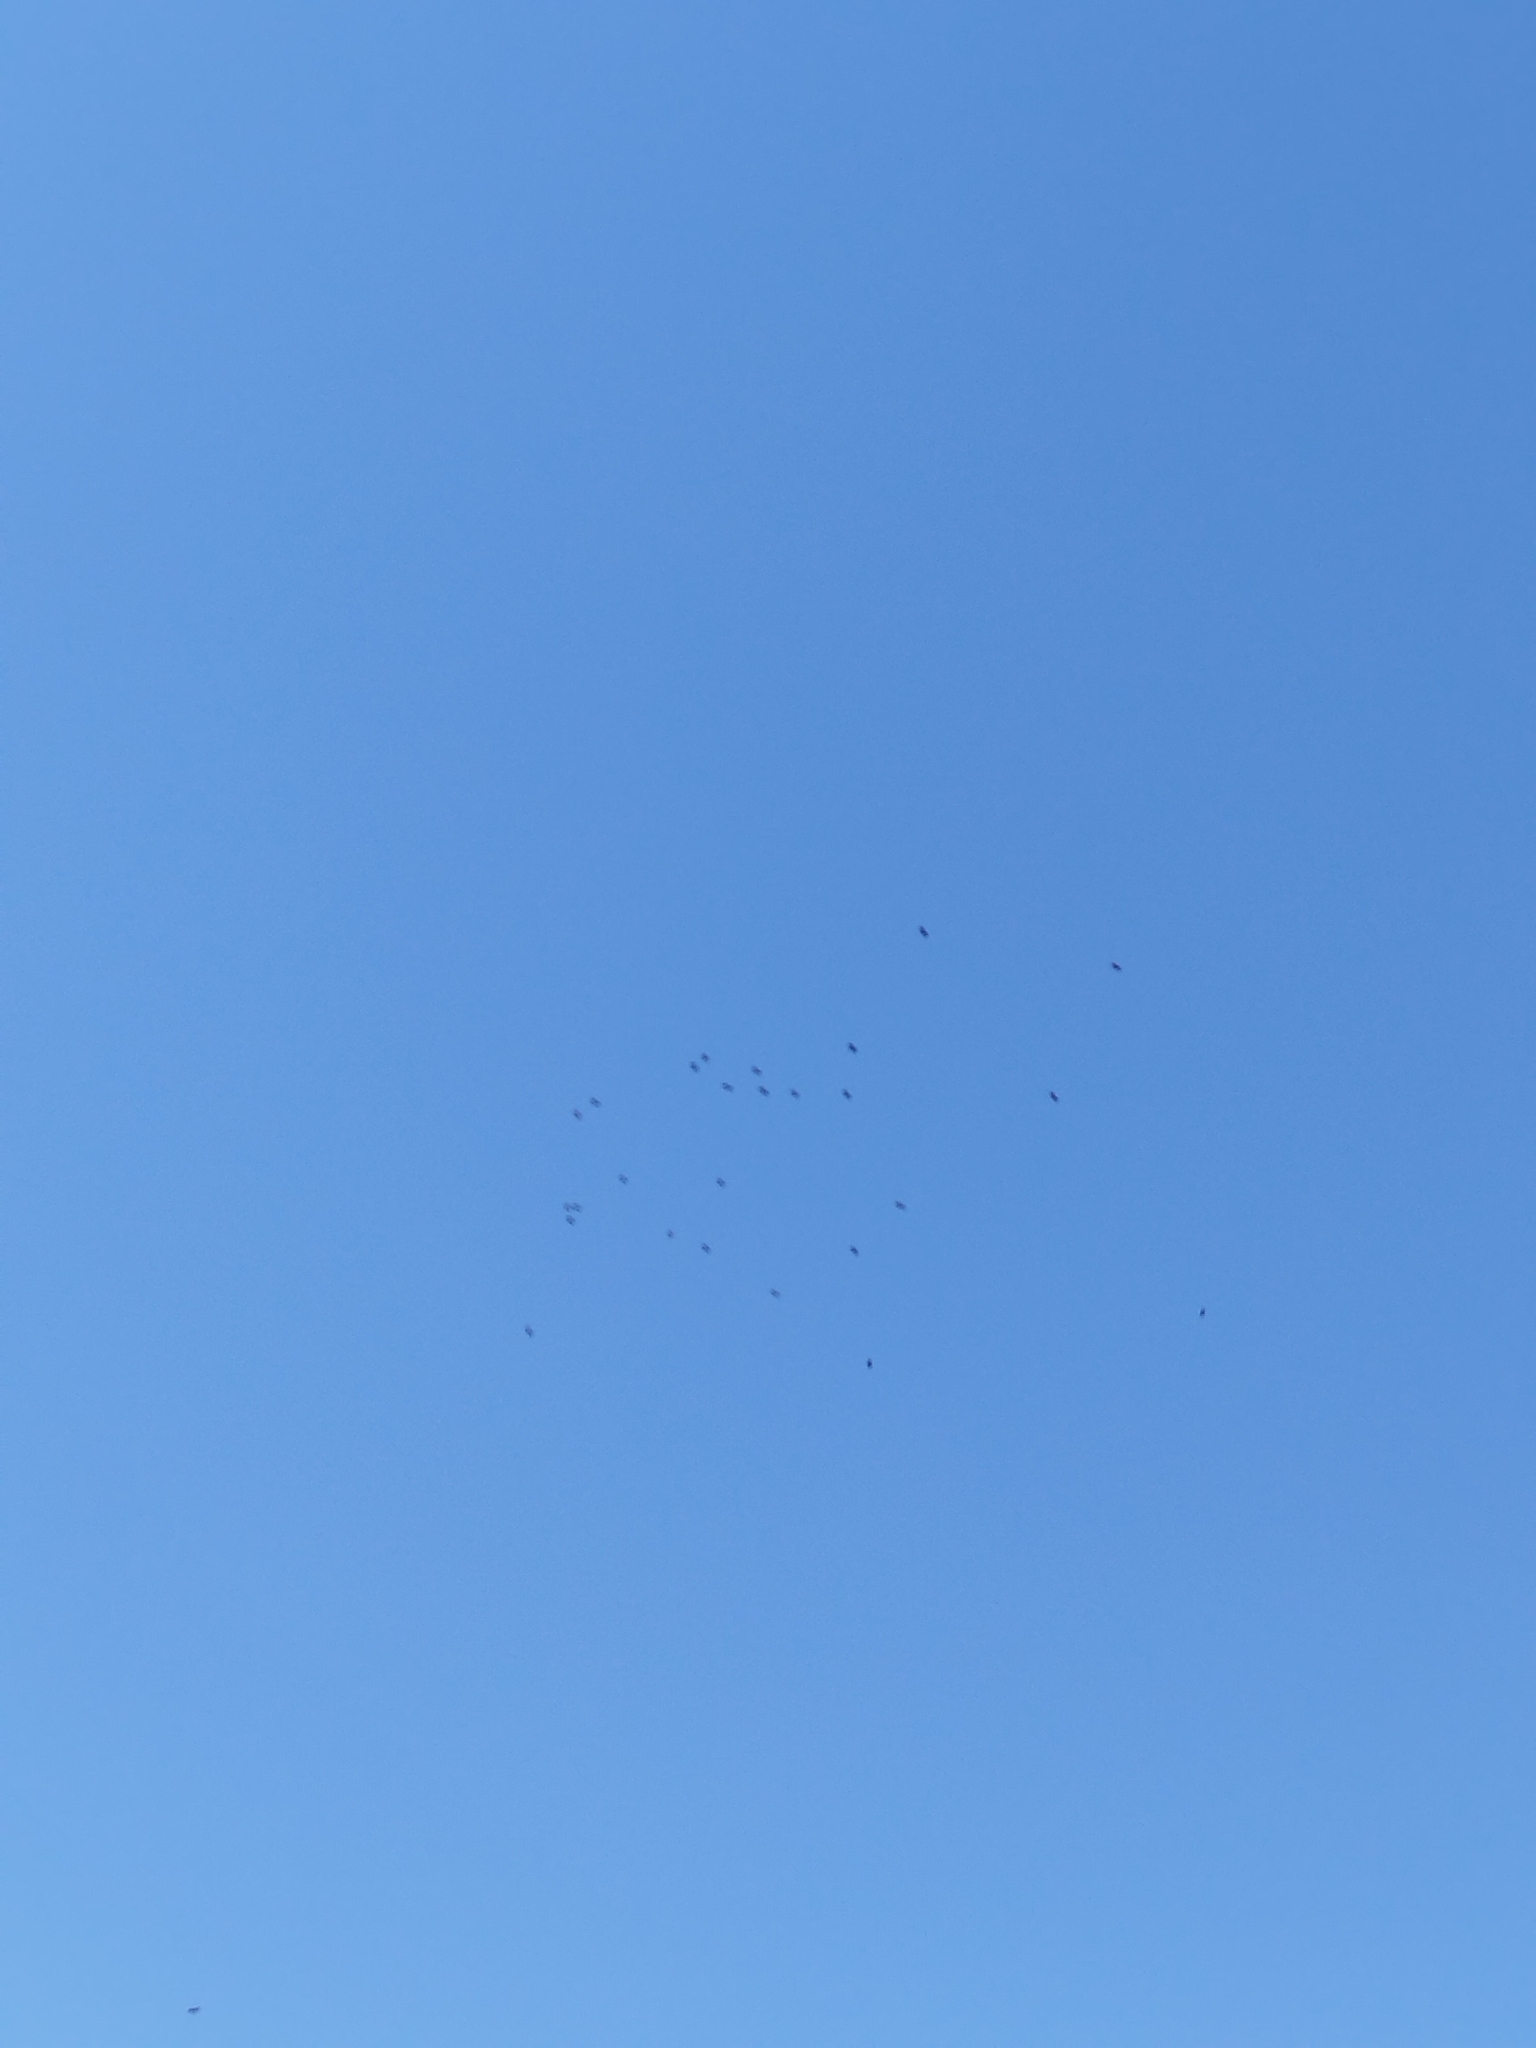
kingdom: Animalia
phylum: Chordata
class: Aves
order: Accipitriformes
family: Accipitridae
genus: Rostrhamus
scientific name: Rostrhamus sociabilis
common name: Snail kite
